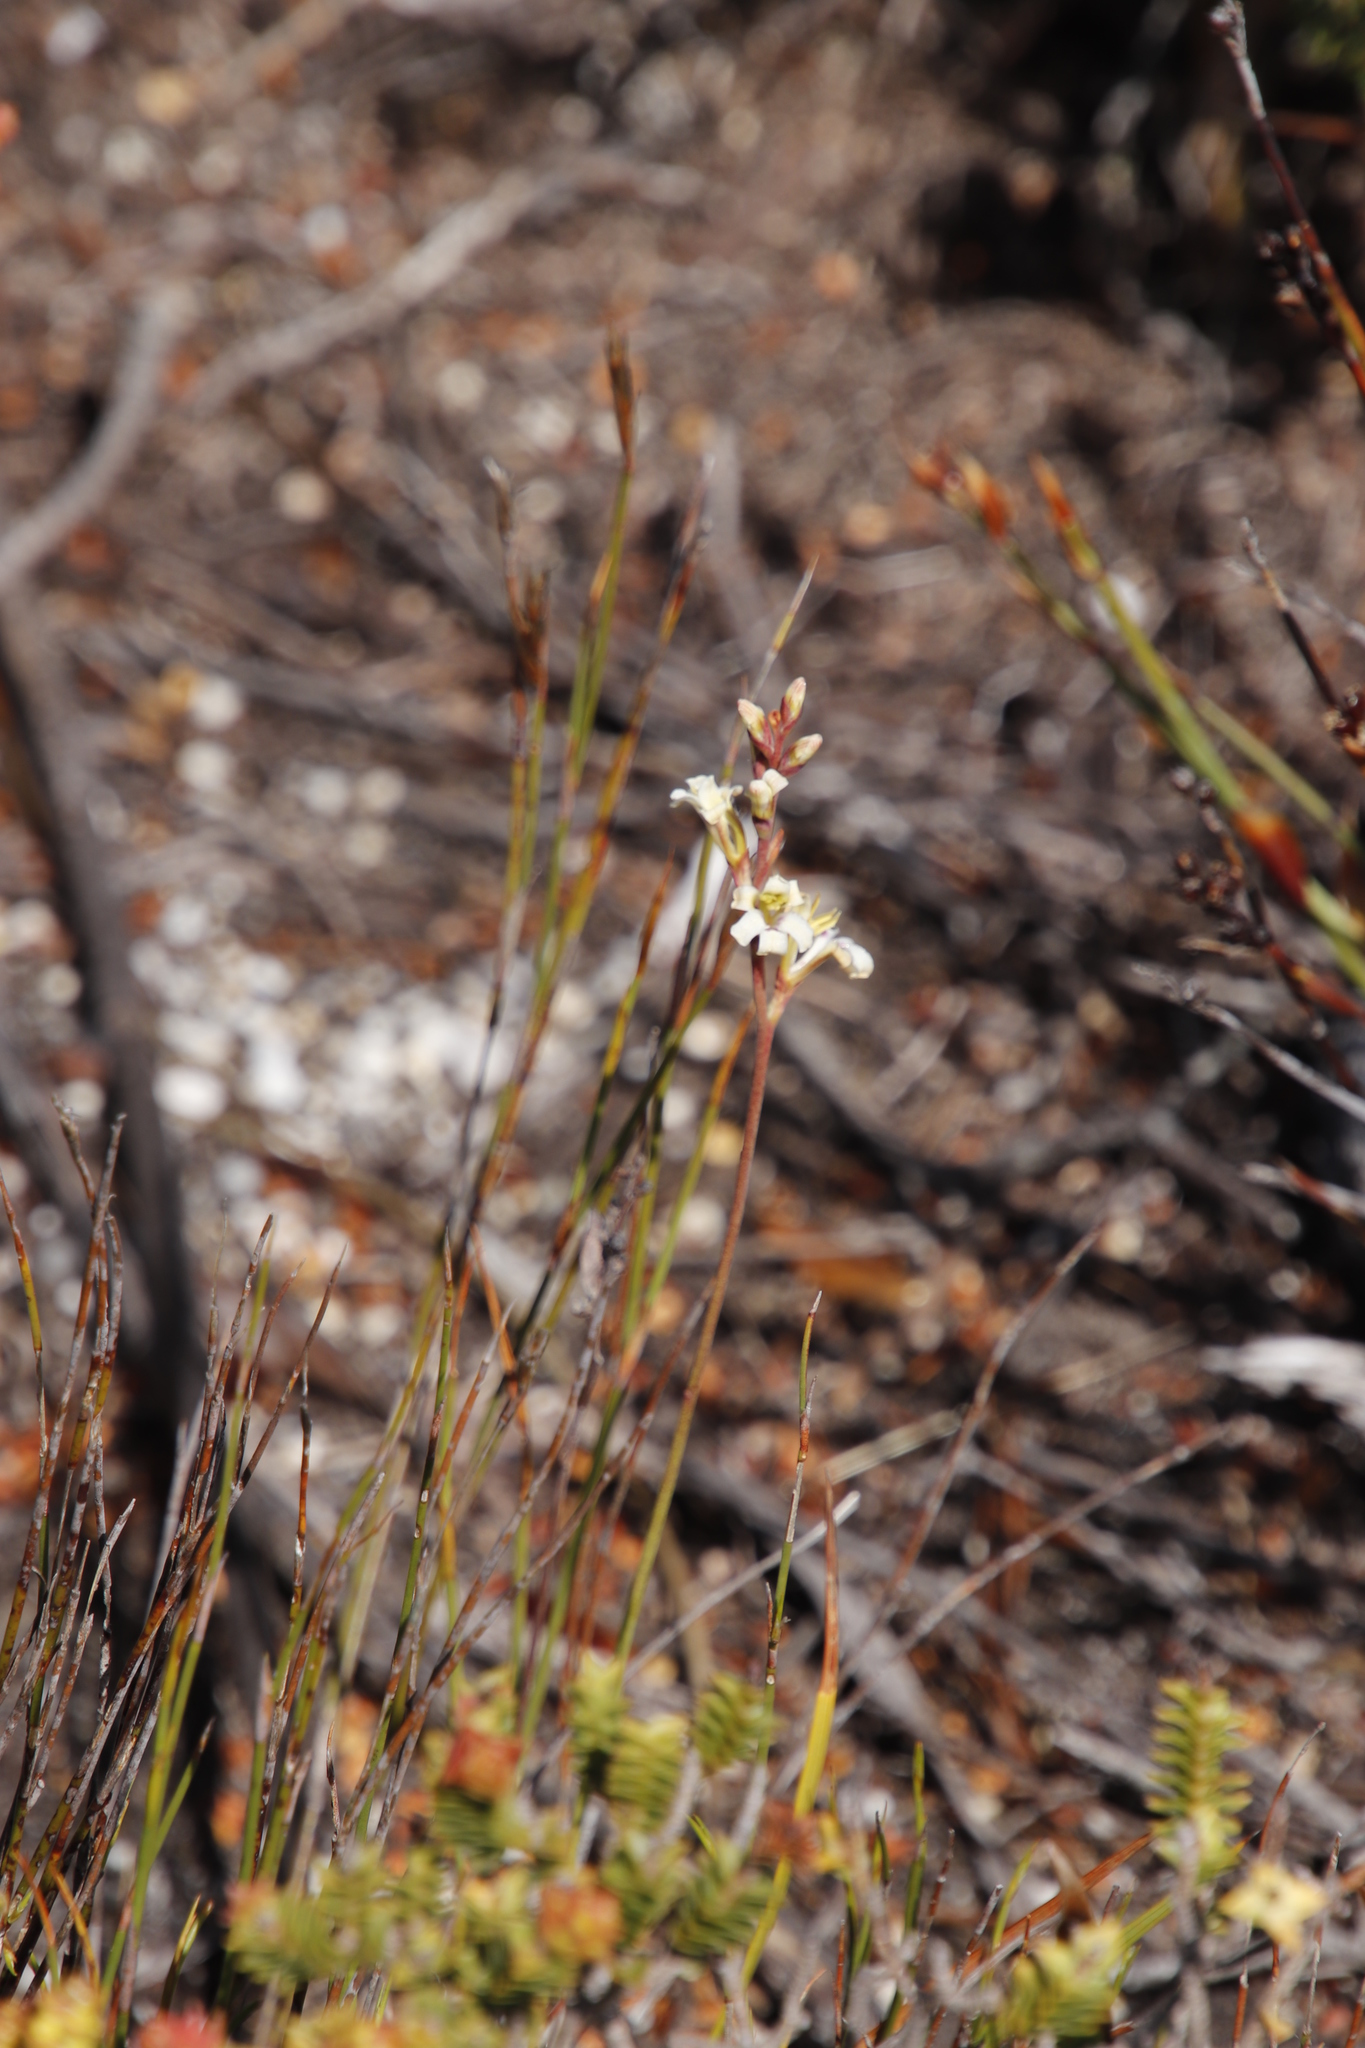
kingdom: Plantae
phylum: Tracheophyta
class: Liliopsida
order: Asparagales
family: Iridaceae
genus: Tritoniopsis
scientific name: Tritoniopsis unguicularis
